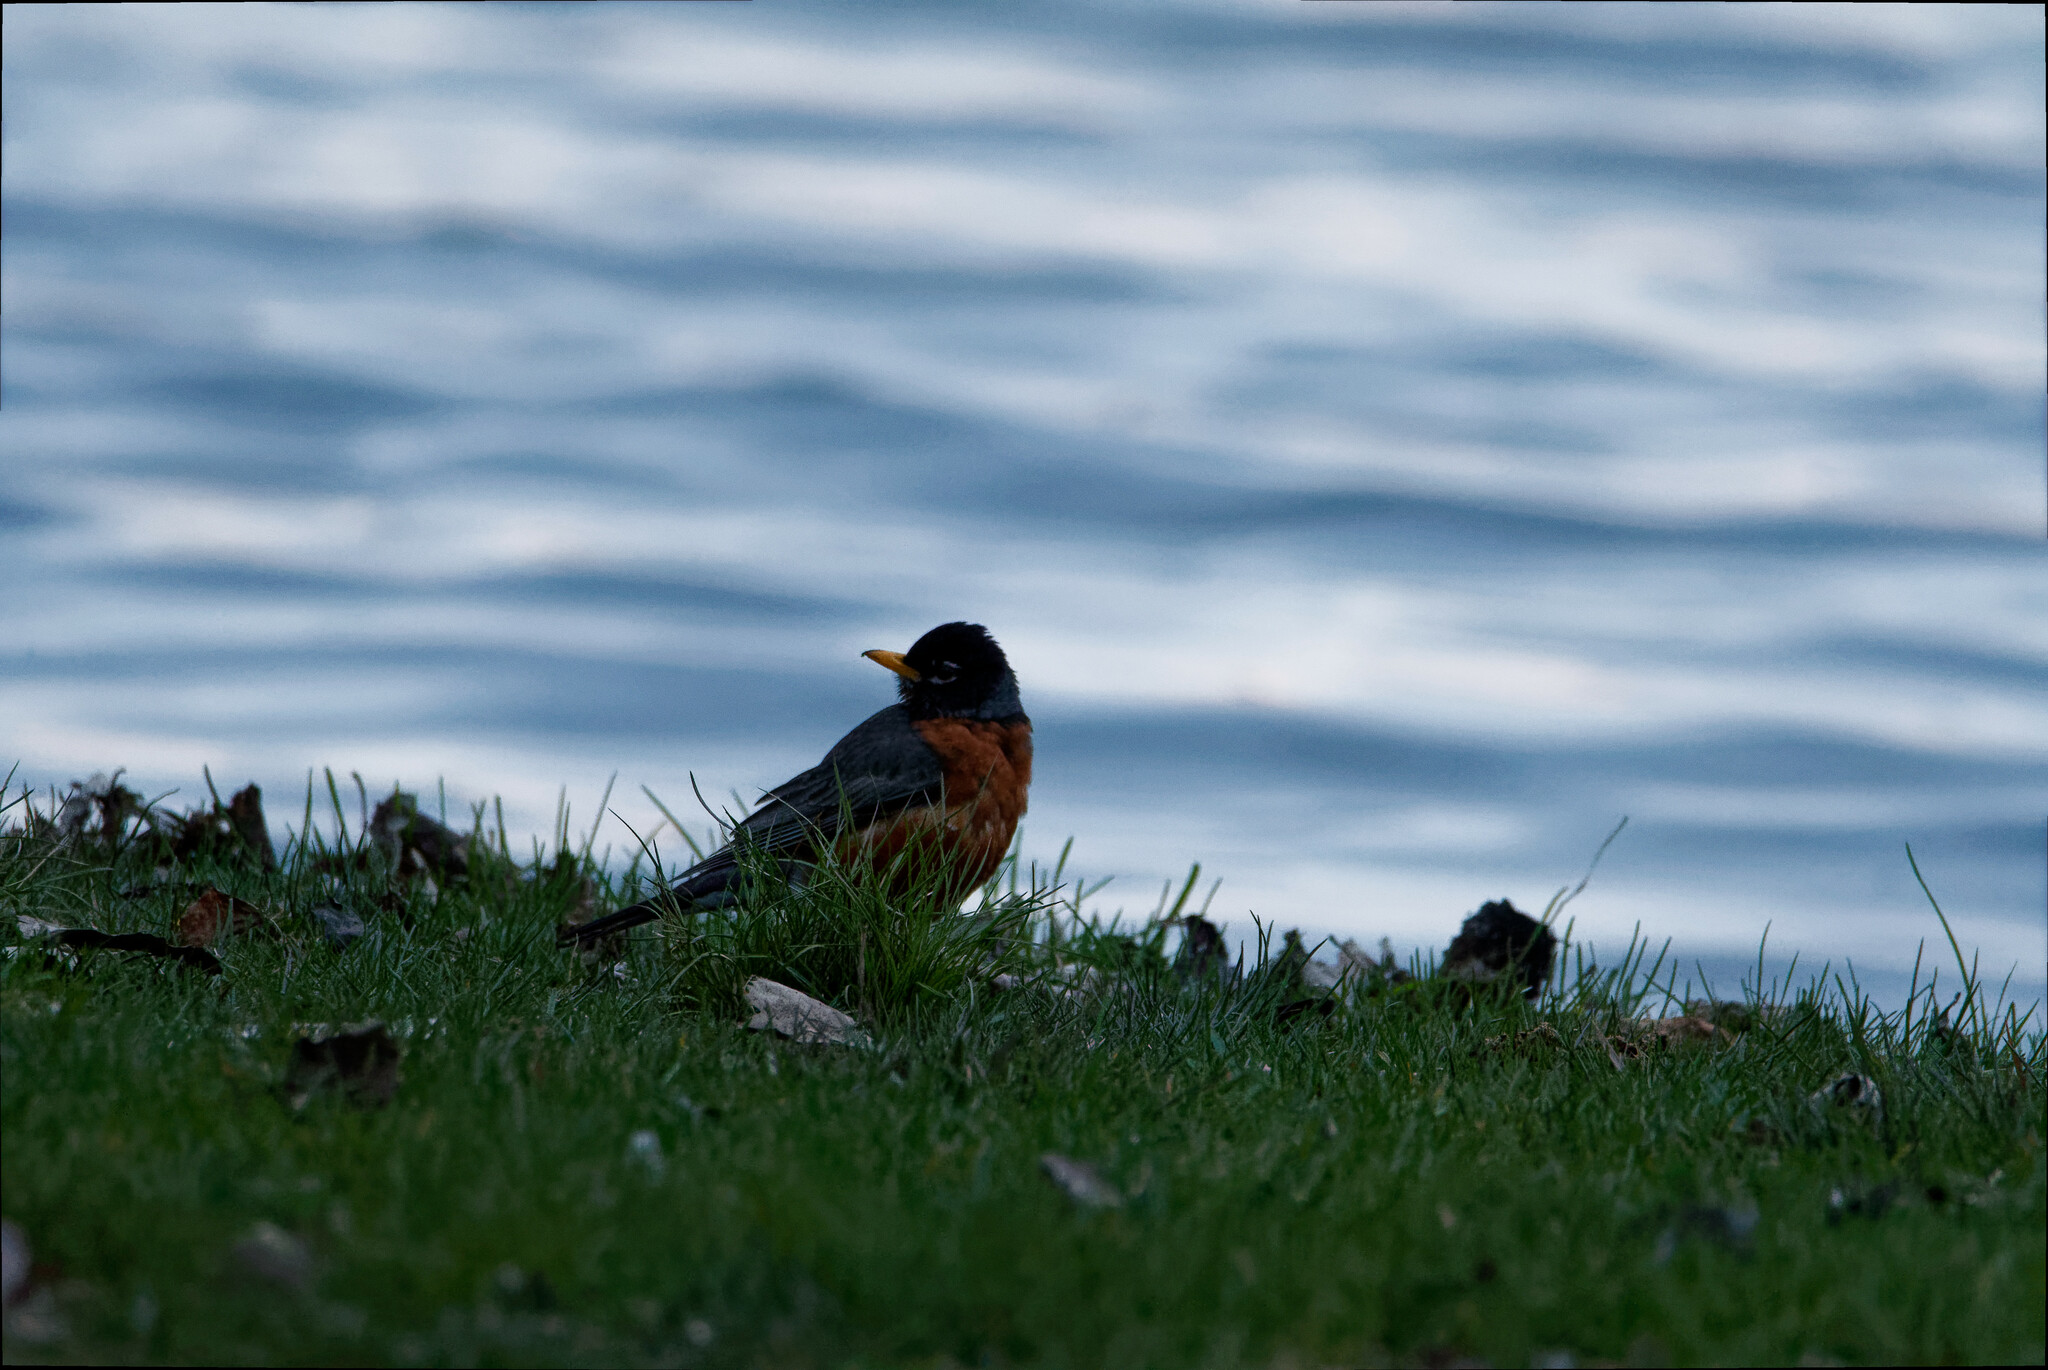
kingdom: Animalia
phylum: Chordata
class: Aves
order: Passeriformes
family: Turdidae
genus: Turdus
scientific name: Turdus migratorius
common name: American robin
